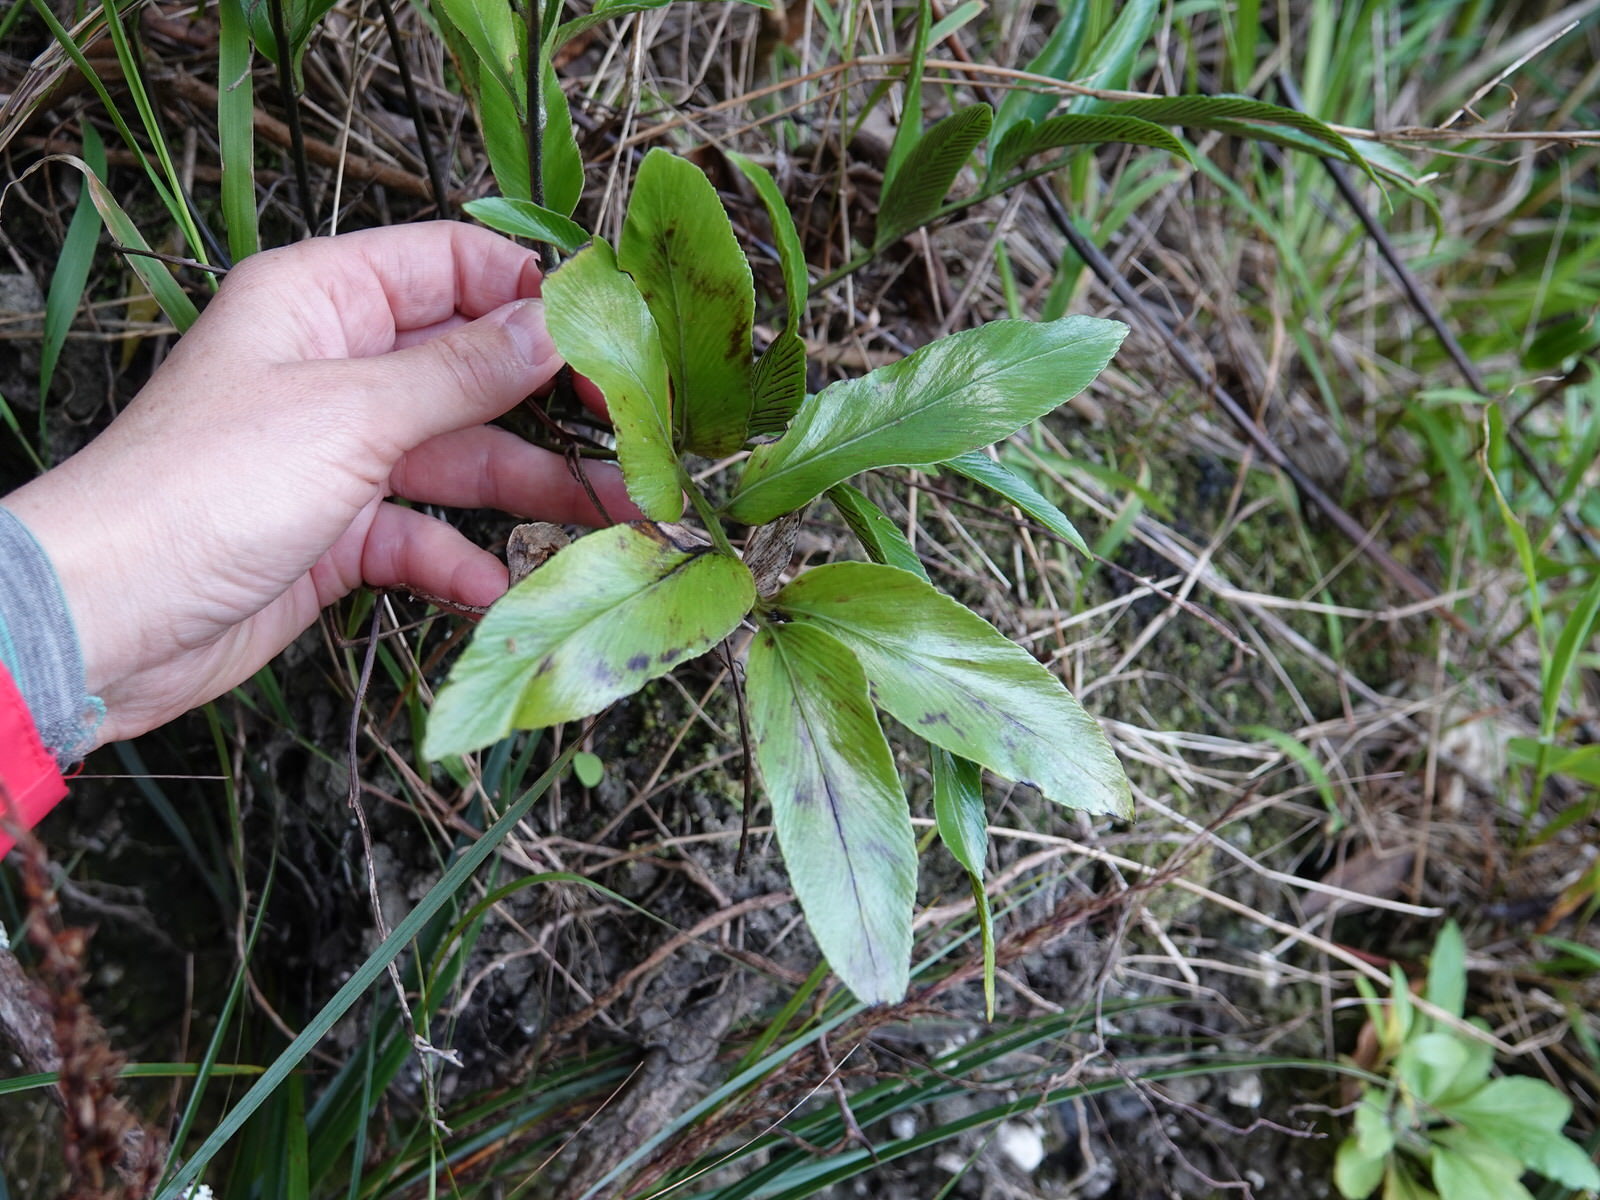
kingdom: Plantae
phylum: Tracheophyta
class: Polypodiopsida
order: Polypodiales
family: Aspleniaceae
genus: Asplenium
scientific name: Asplenium oblongifolium
